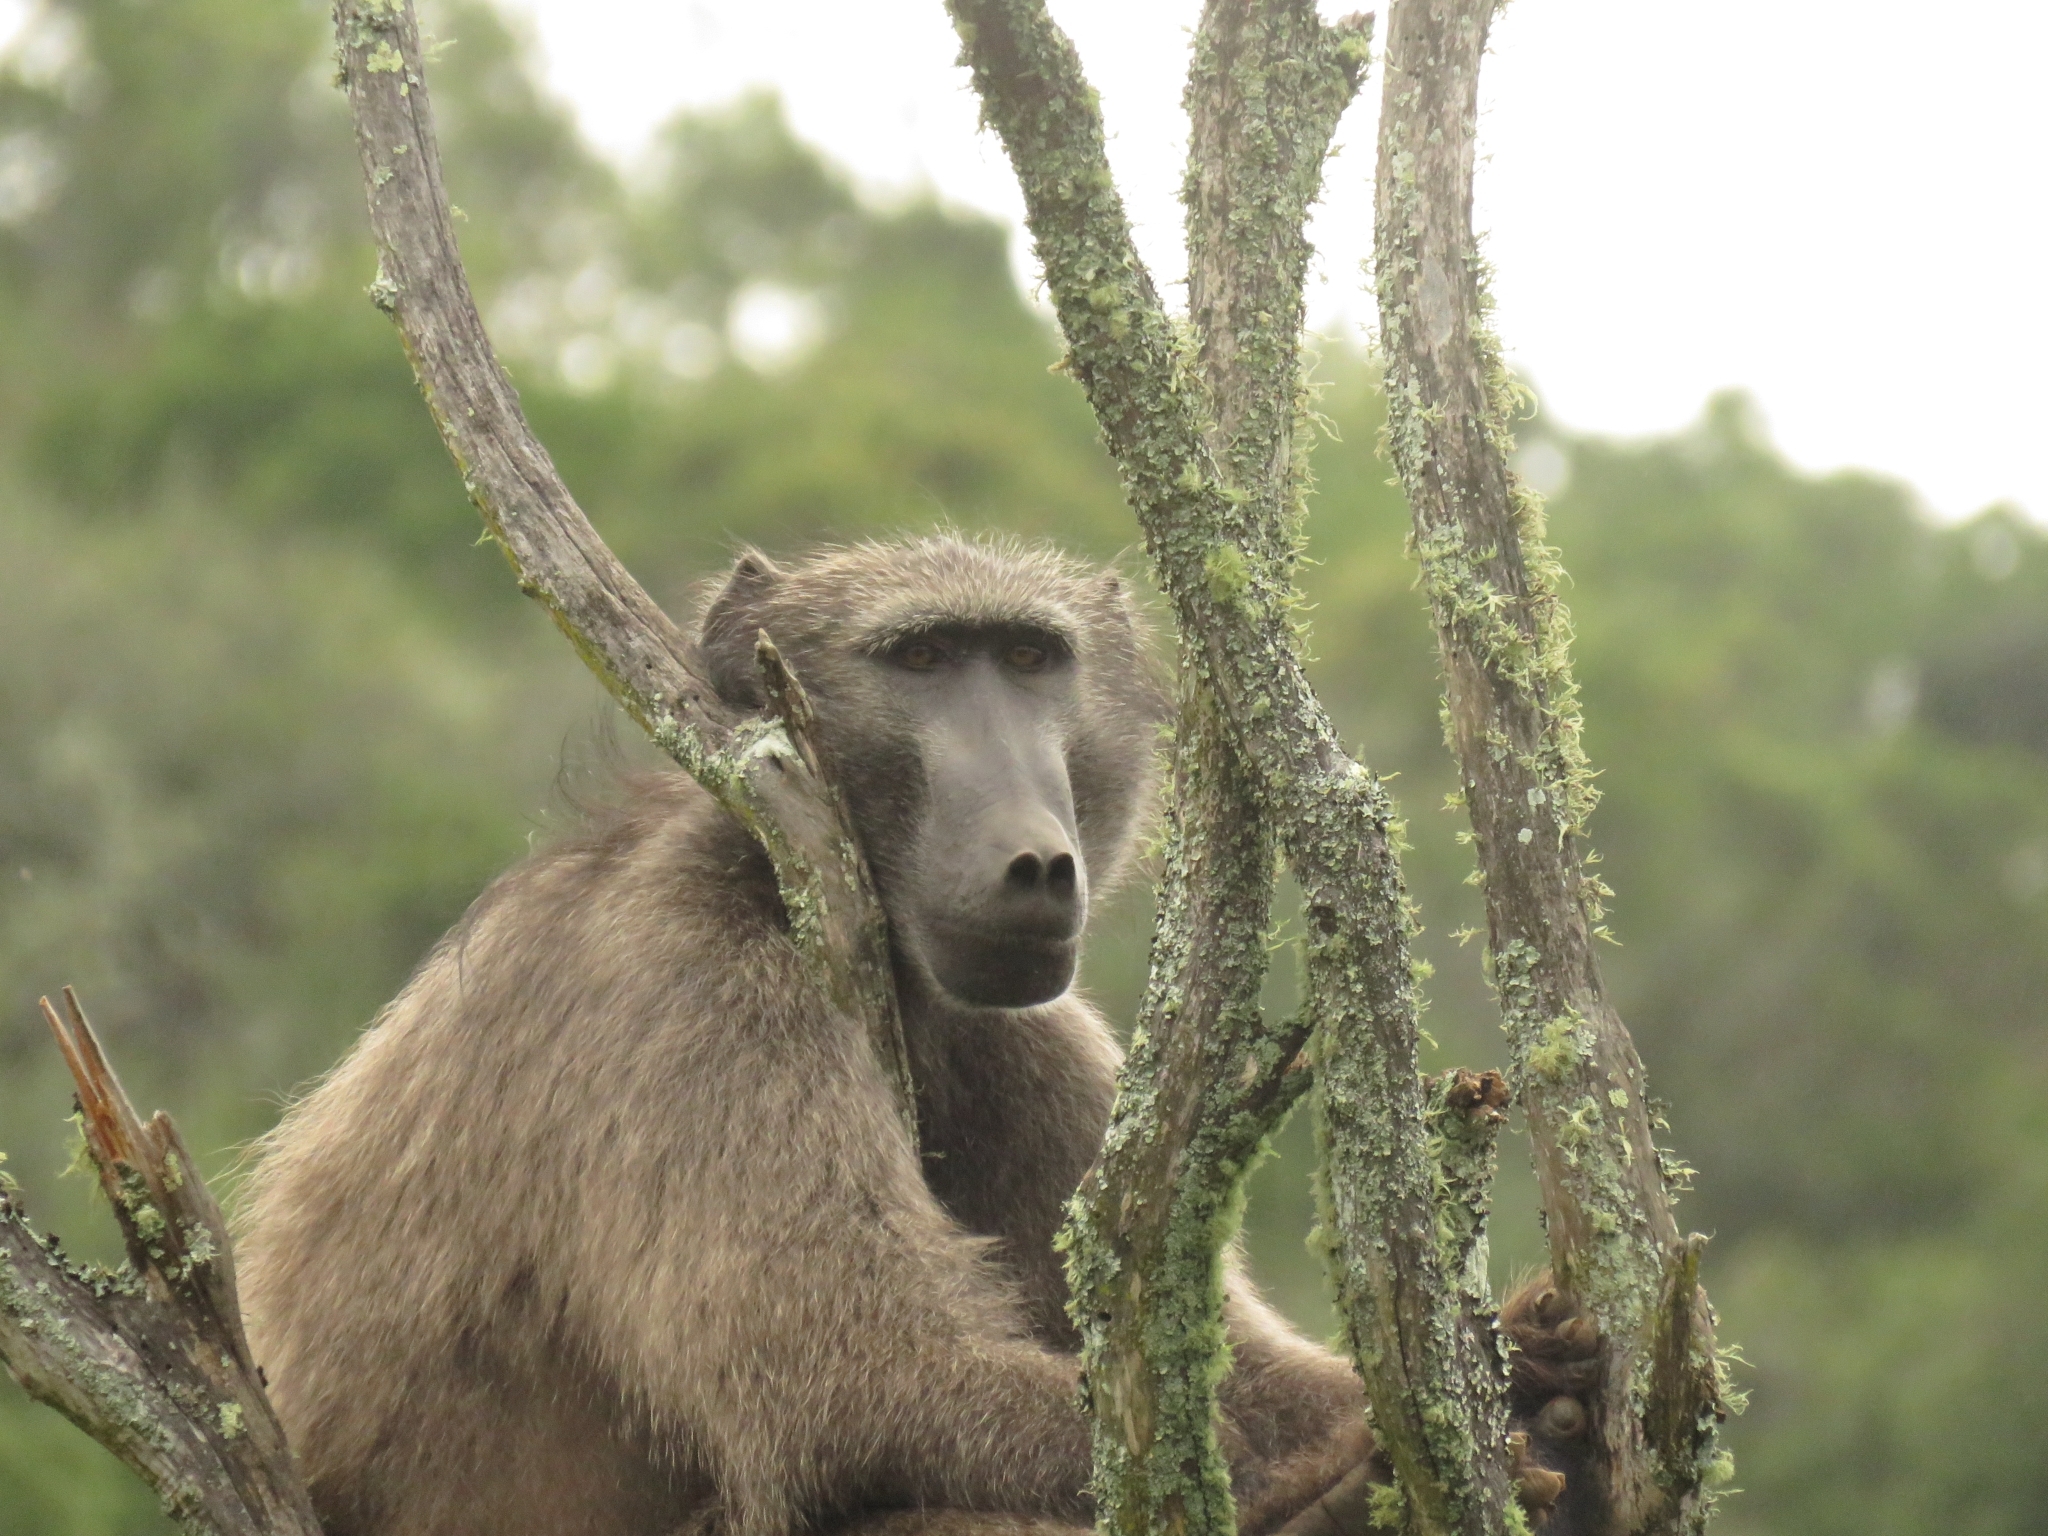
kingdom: Animalia
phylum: Chordata
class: Mammalia
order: Primates
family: Cercopithecidae
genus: Papio
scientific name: Papio ursinus
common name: Chacma baboon
